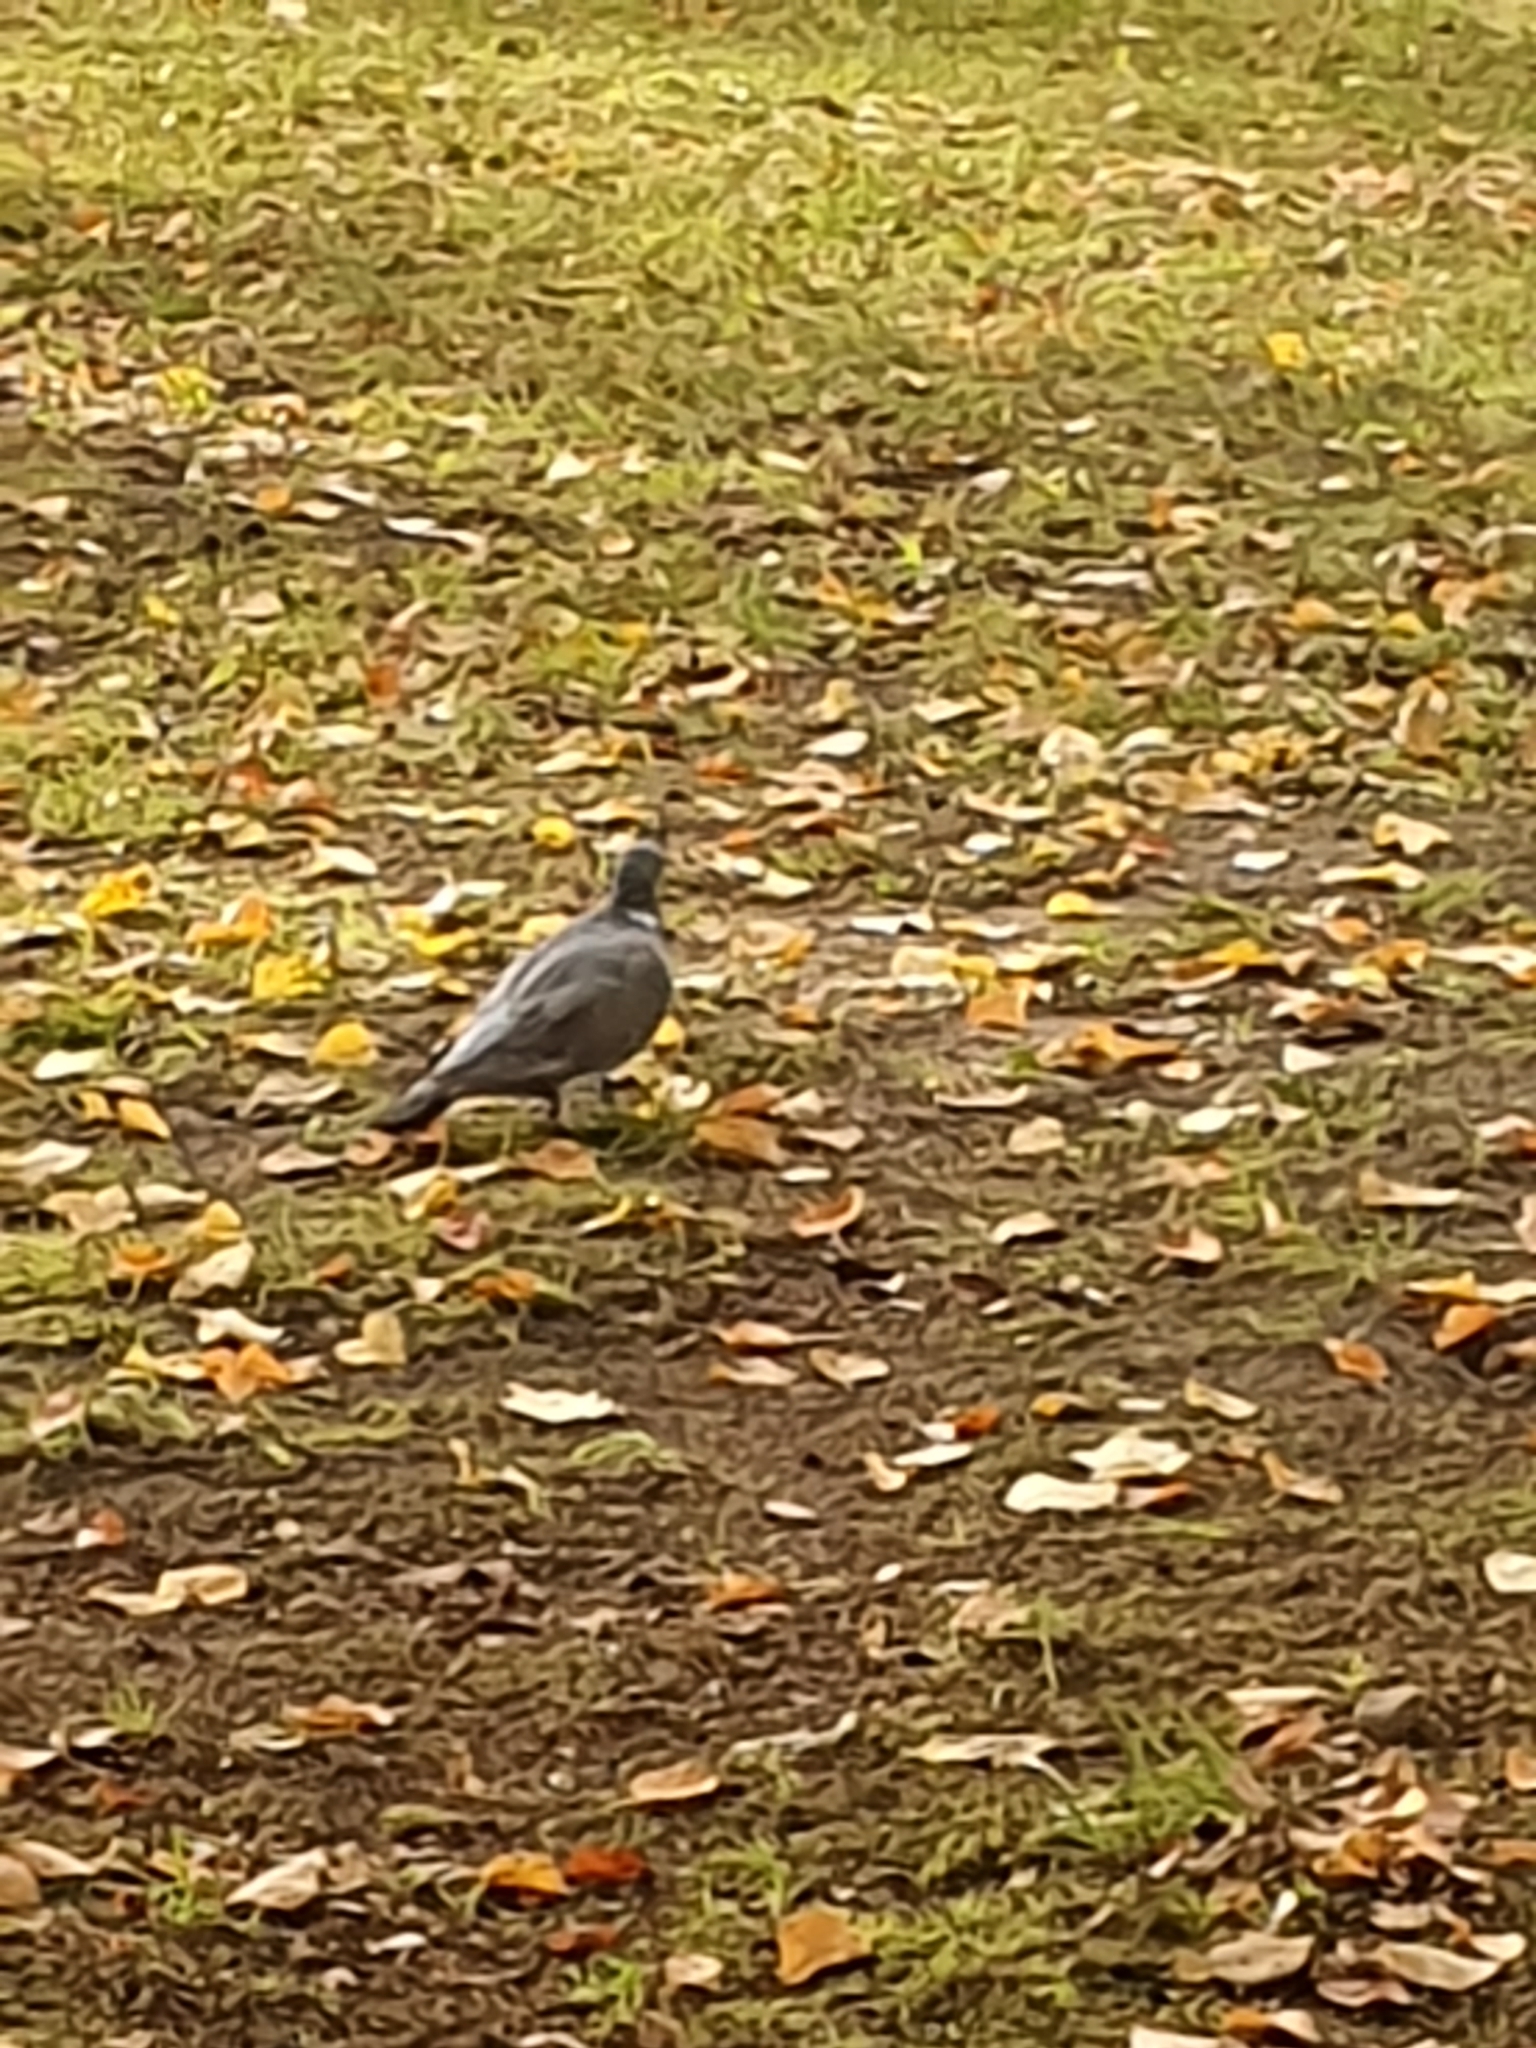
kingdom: Animalia
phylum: Chordata
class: Aves
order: Columbiformes
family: Columbidae
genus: Columba
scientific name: Columba palumbus
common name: Common wood pigeon
